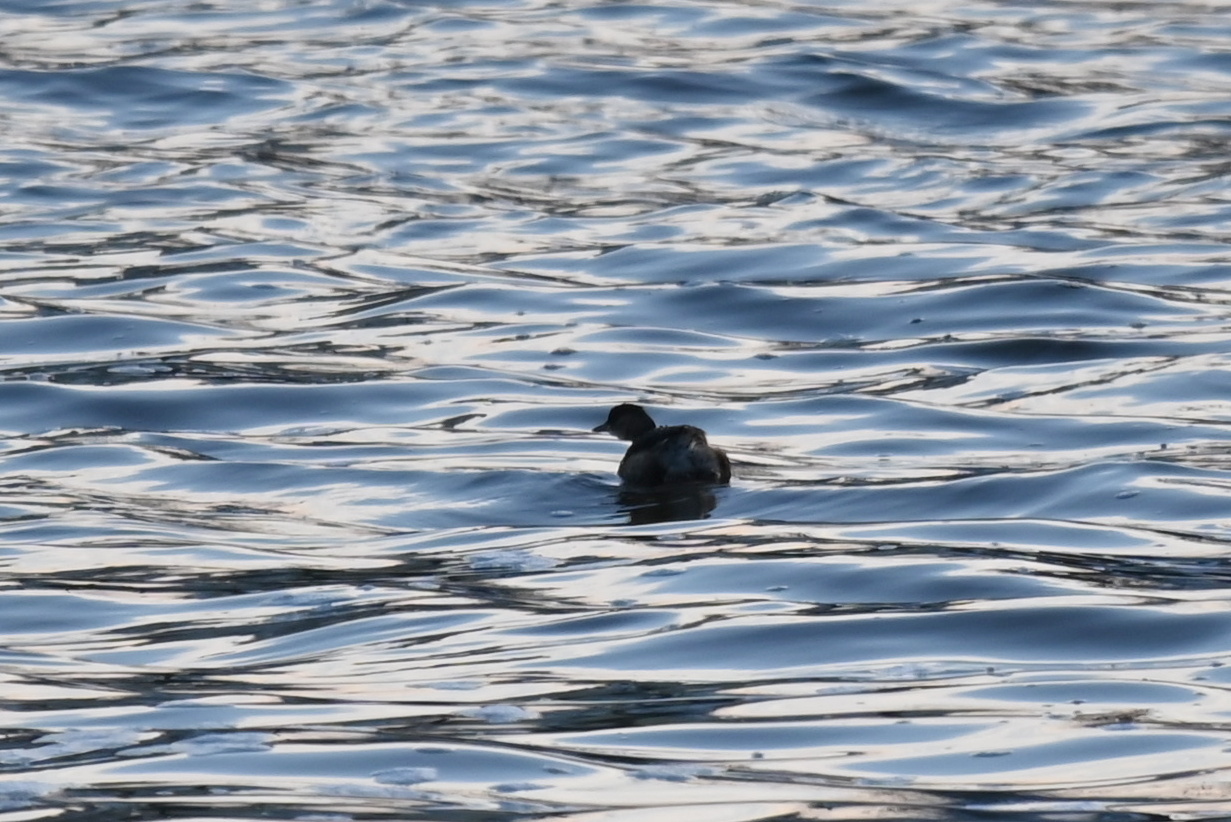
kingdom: Animalia
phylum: Chordata
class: Aves
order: Podicipediformes
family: Podicipedidae
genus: Tachybaptus
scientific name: Tachybaptus ruficollis
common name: Little grebe
